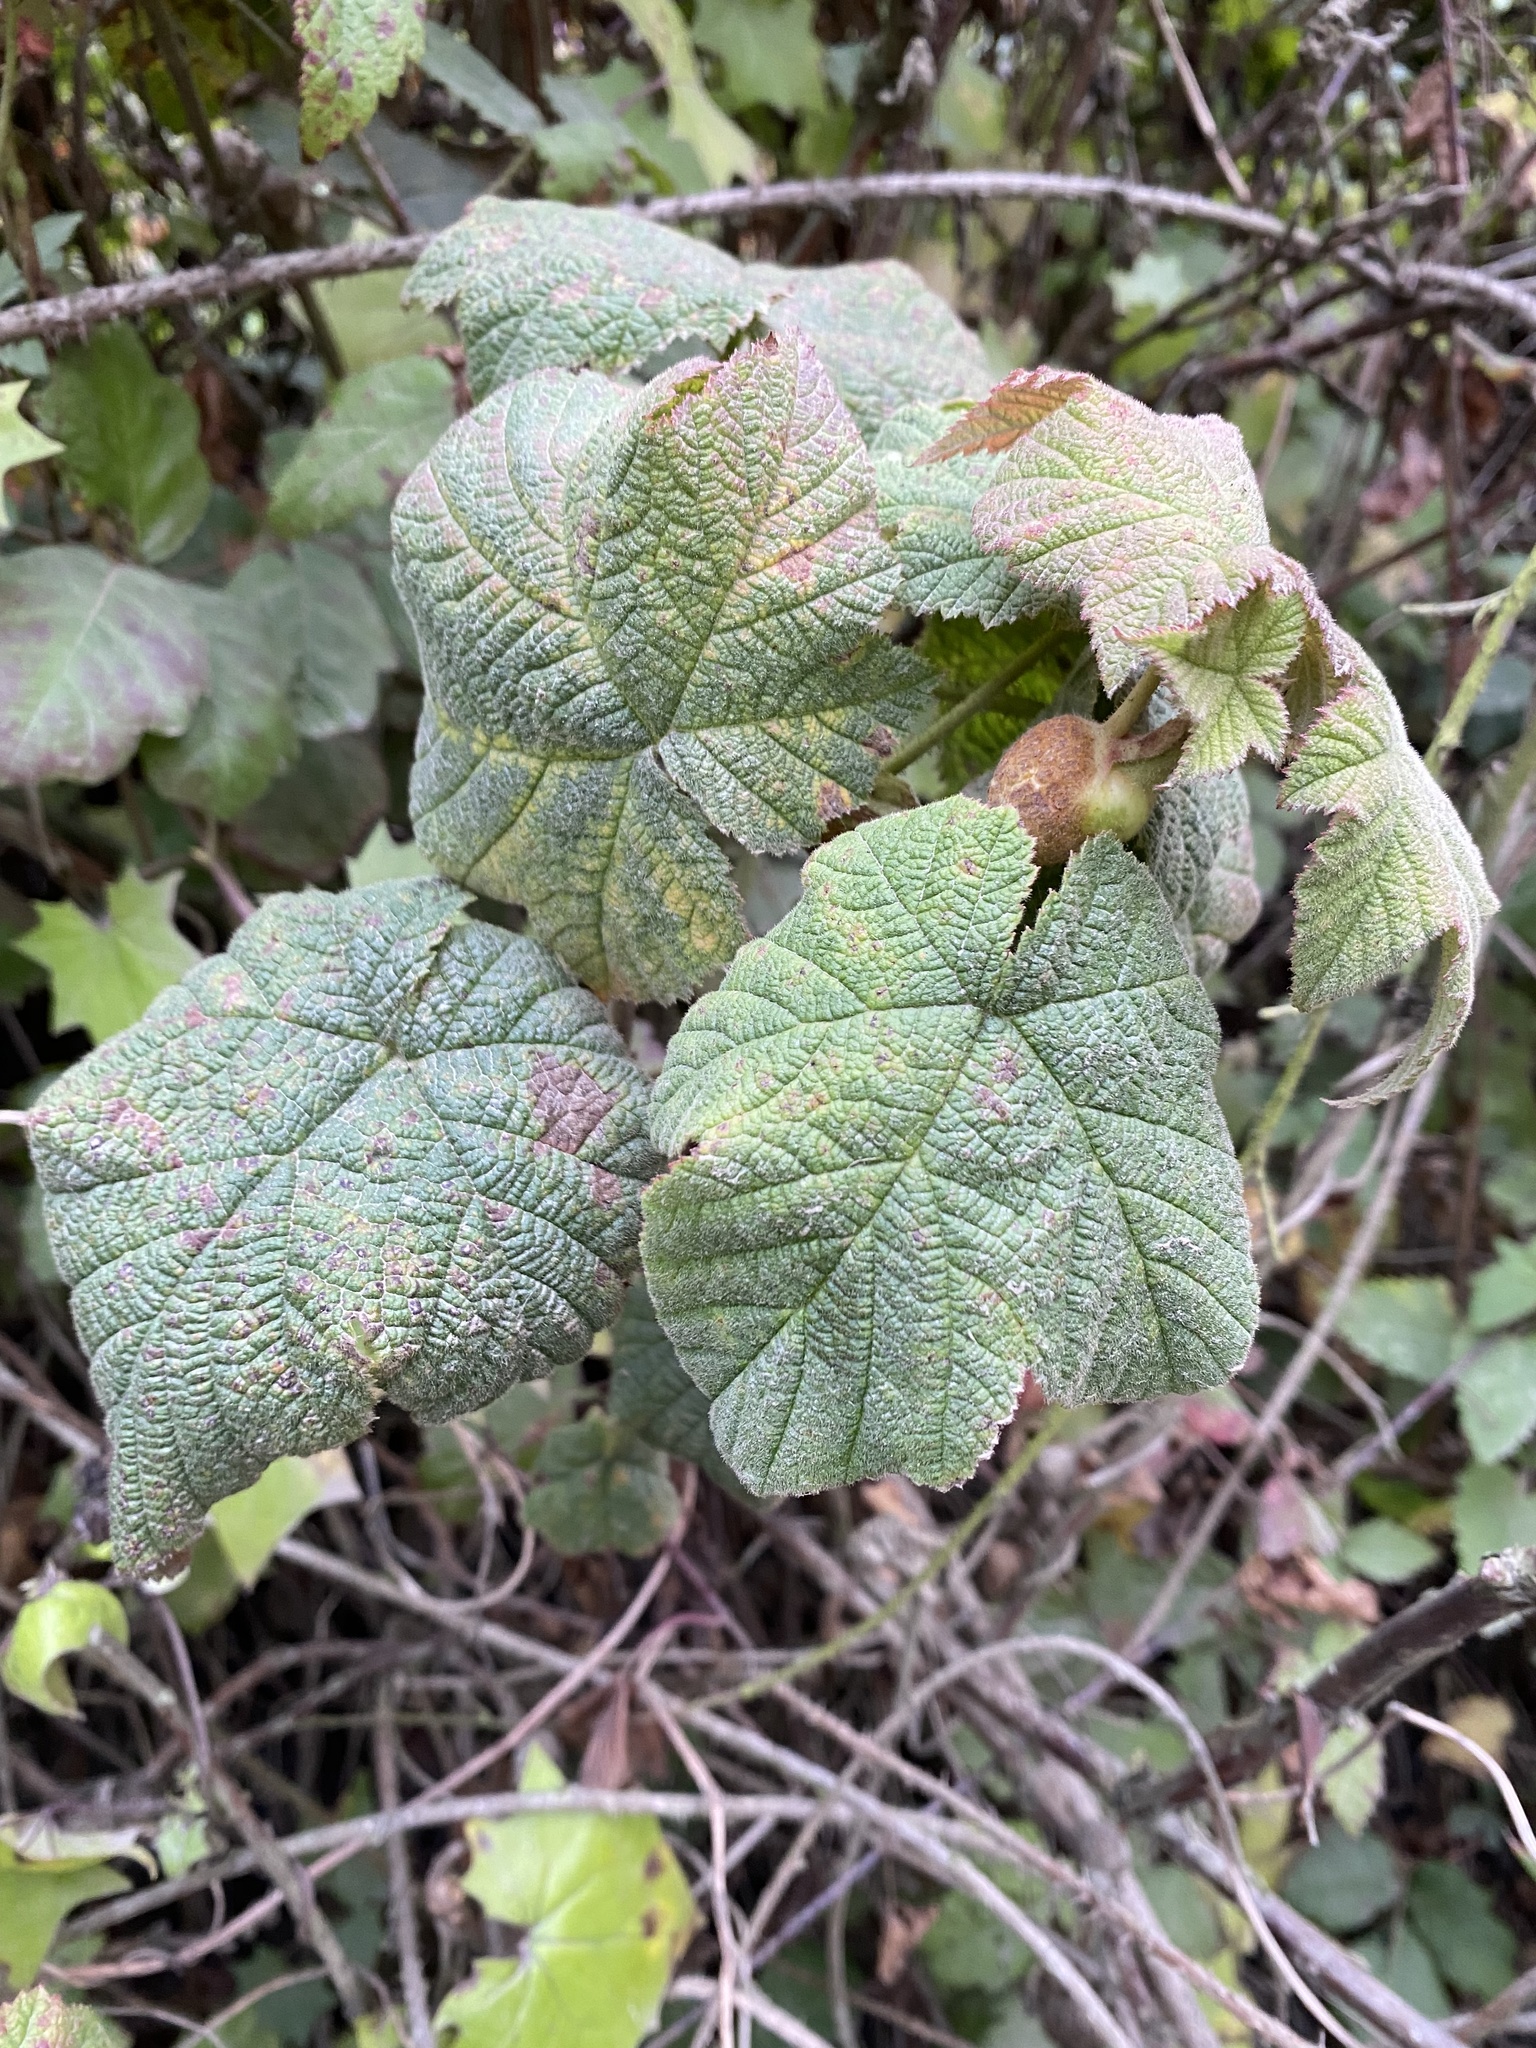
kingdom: Plantae
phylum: Tracheophyta
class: Magnoliopsida
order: Rosales
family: Rosaceae
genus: Rubus
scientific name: Rubus parviflorus
